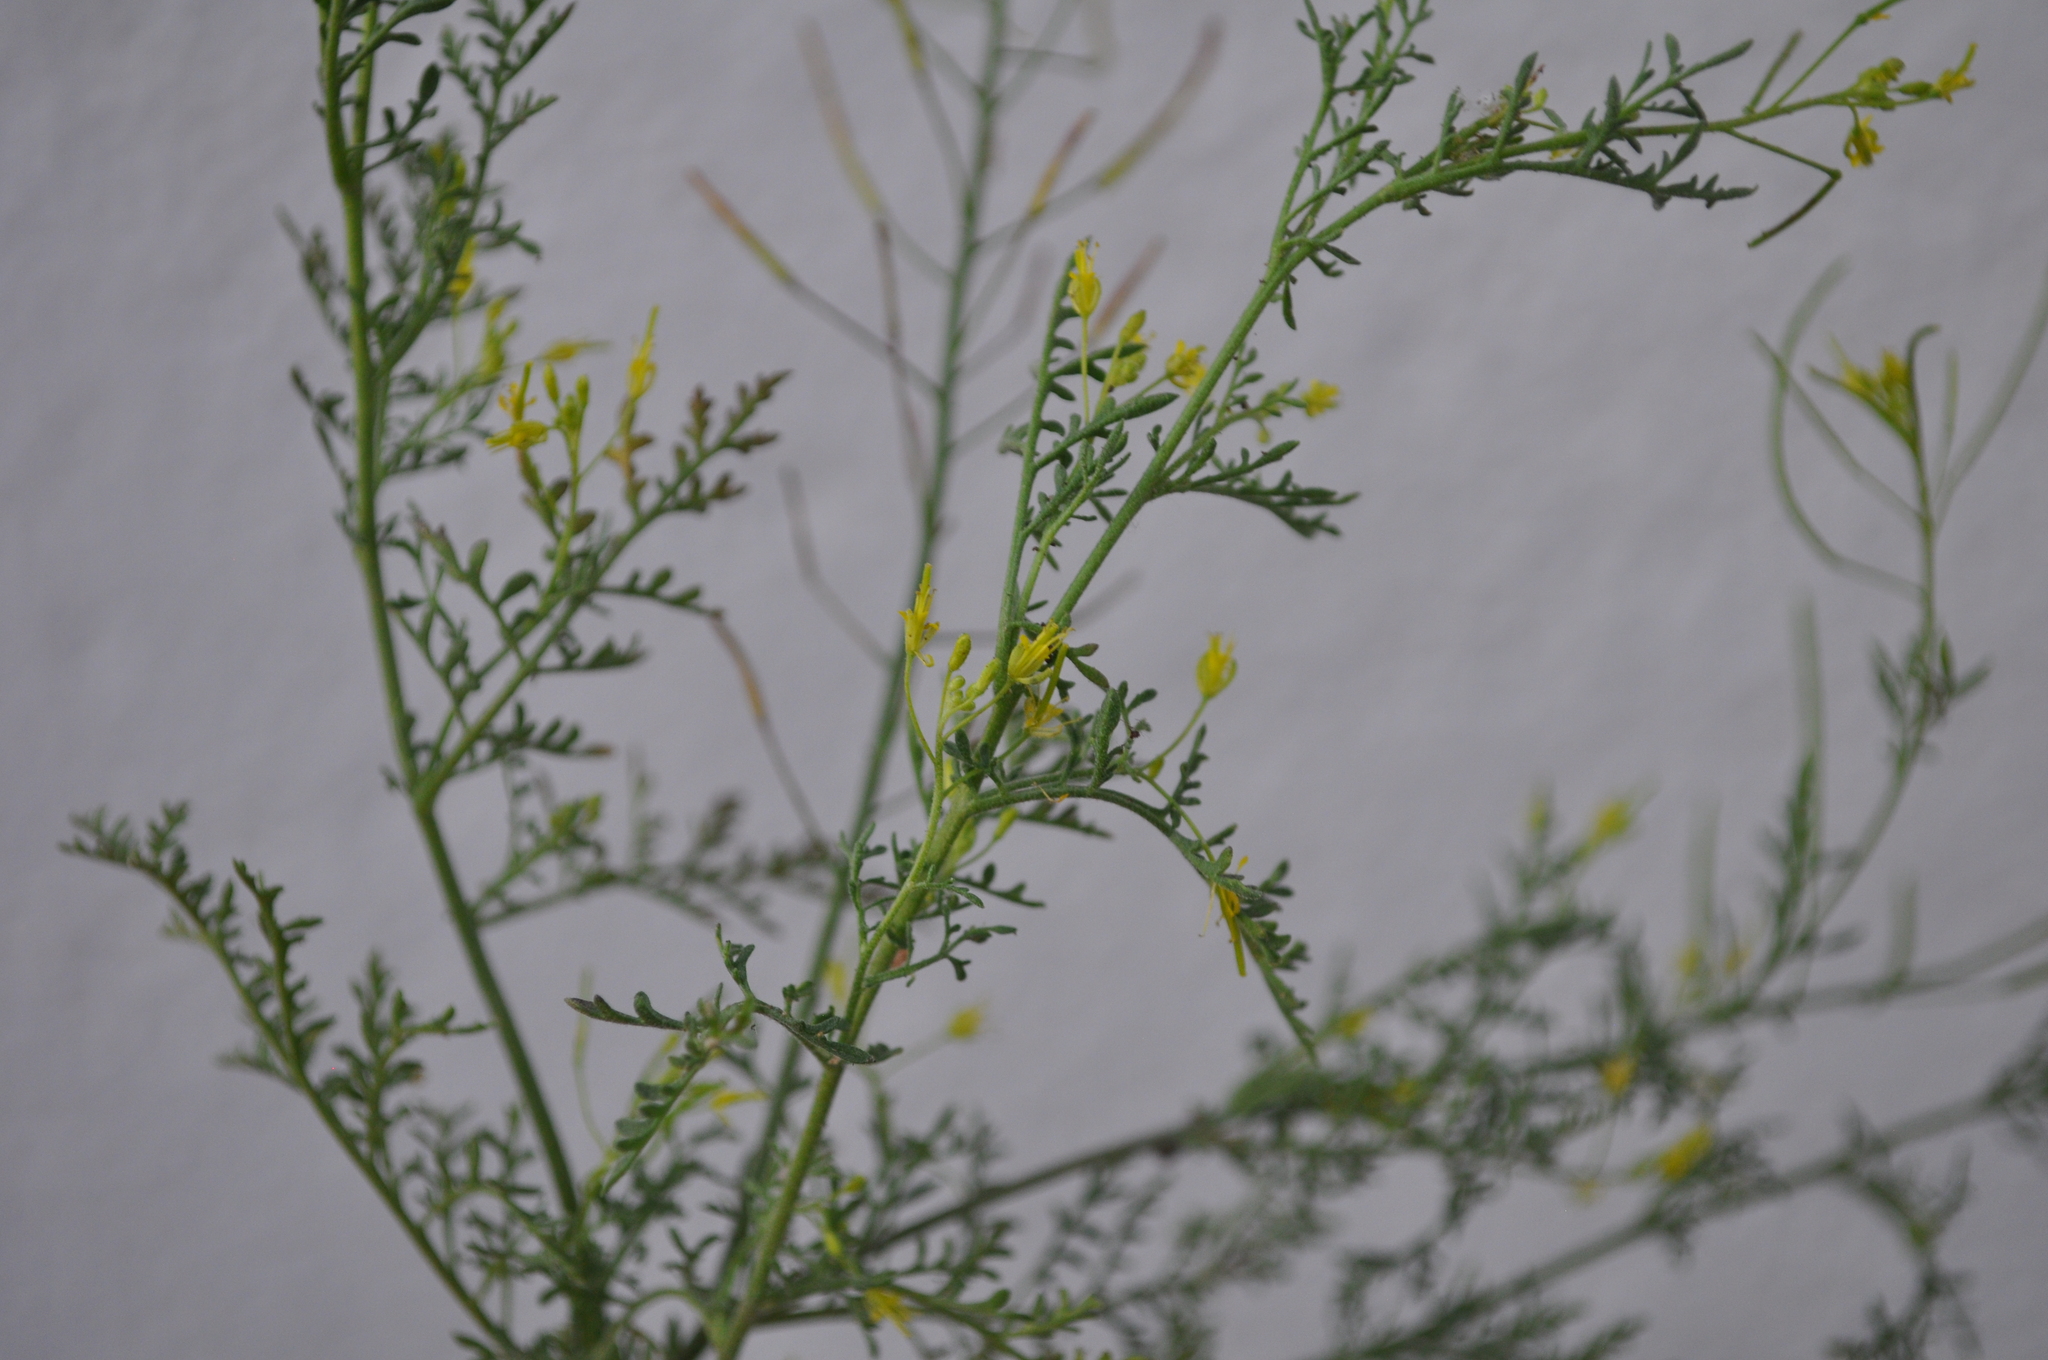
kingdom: Plantae
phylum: Tracheophyta
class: Magnoliopsida
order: Brassicales
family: Brassicaceae
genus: Descurainia
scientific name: Descurainia sophia
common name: Flixweed
